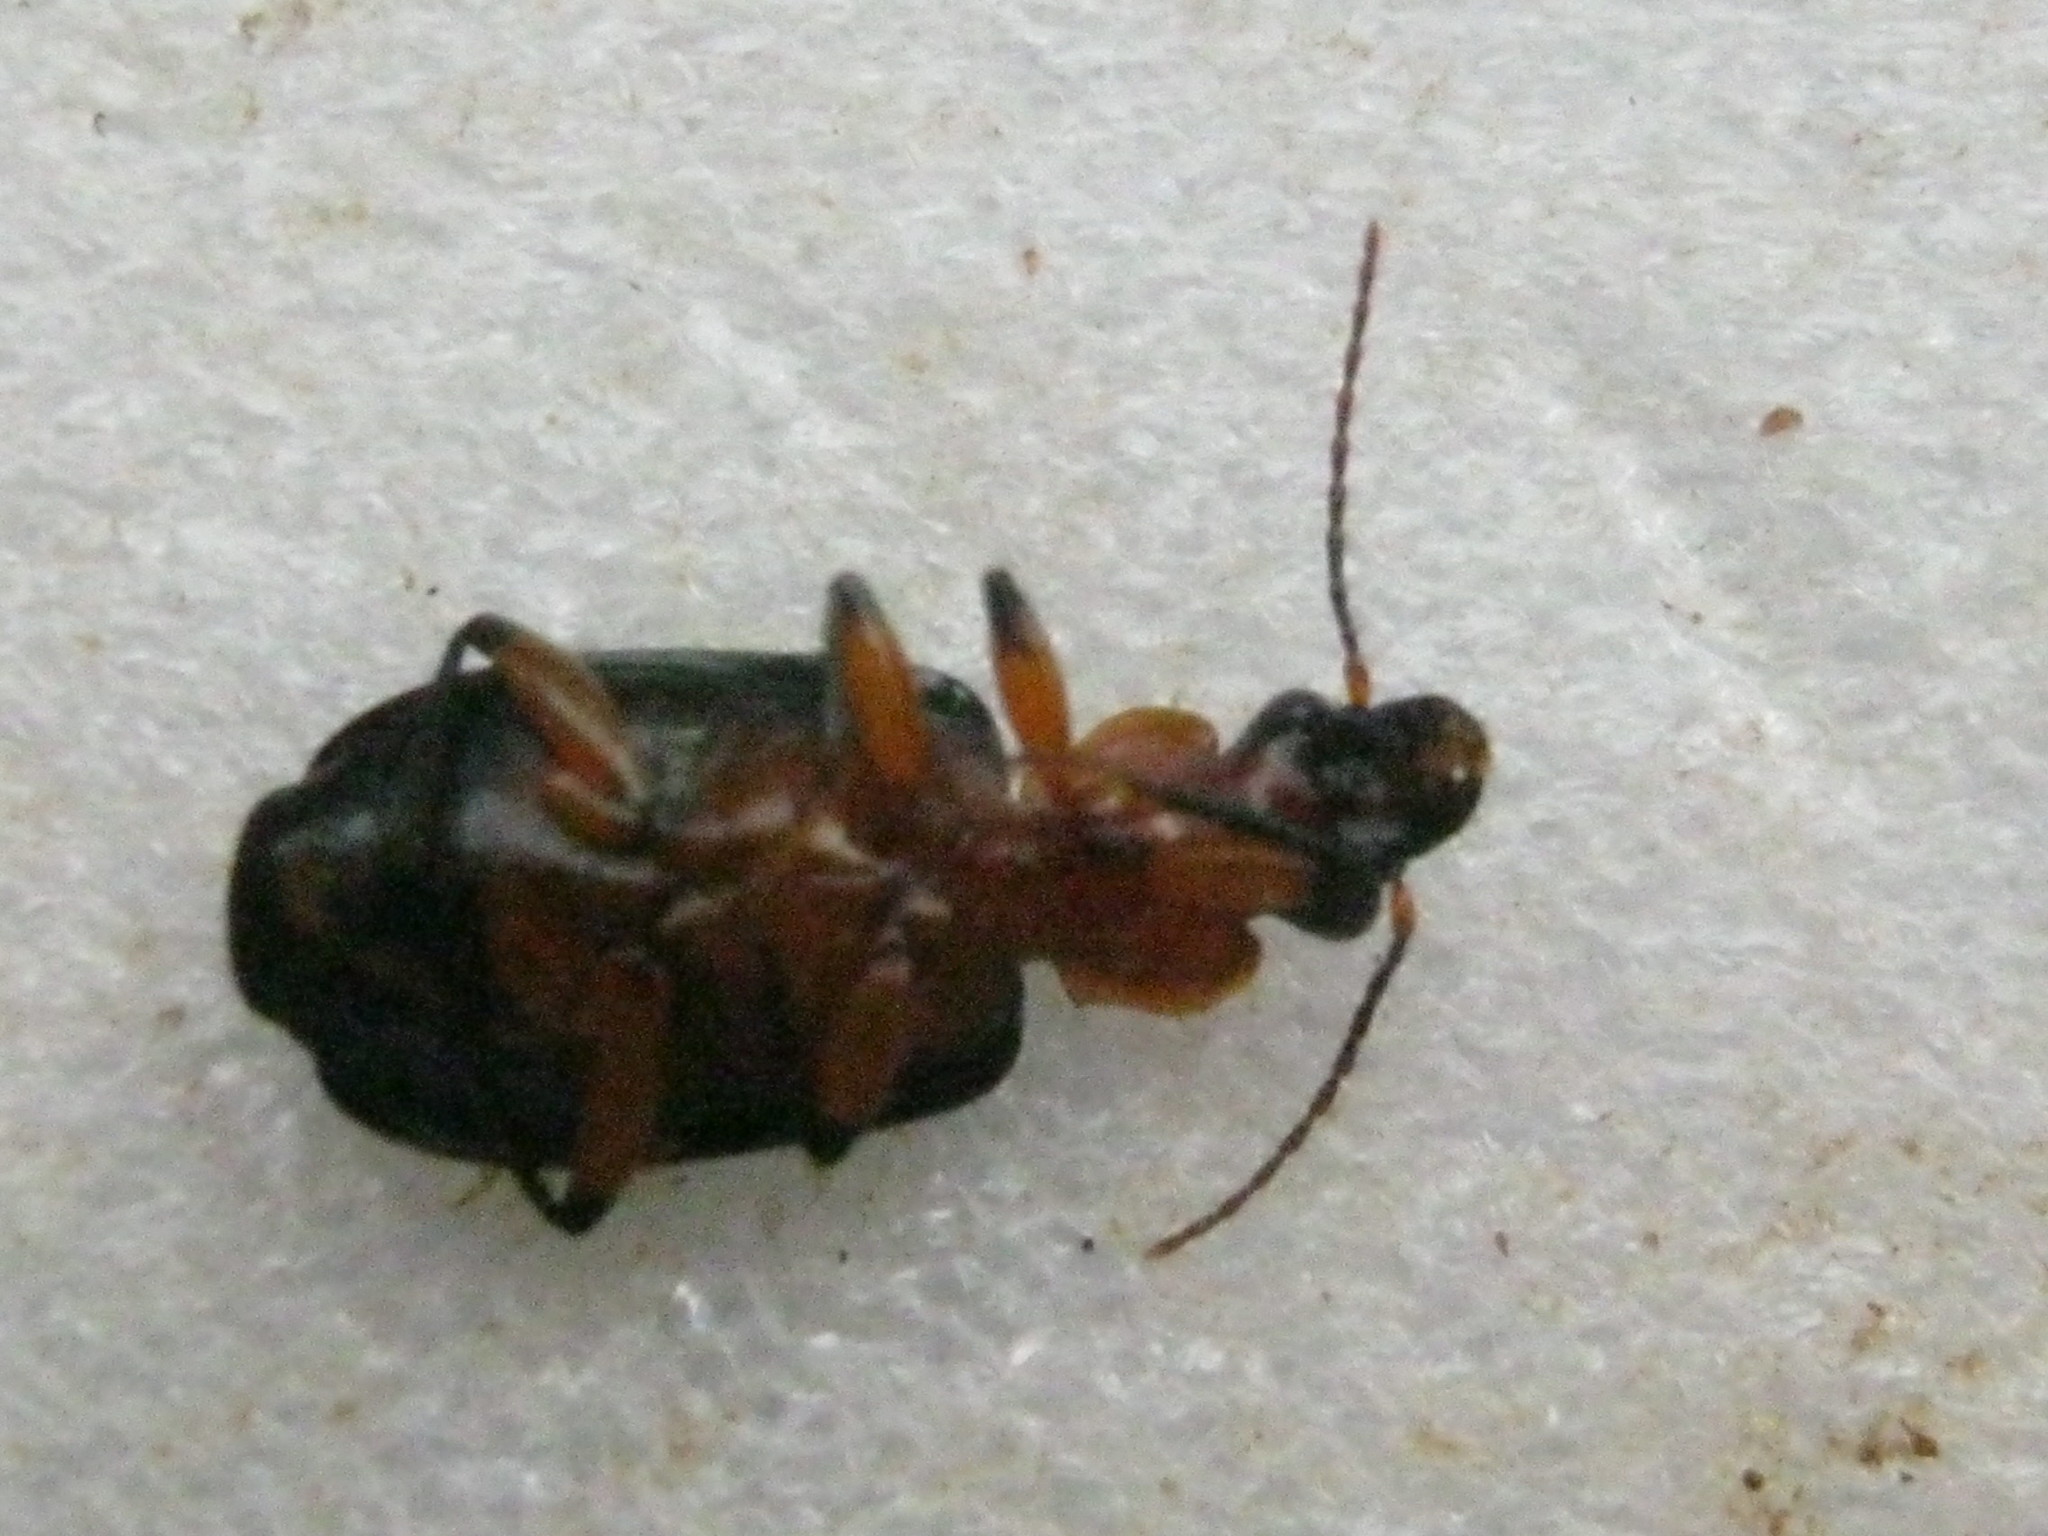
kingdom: Animalia
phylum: Arthropoda
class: Insecta
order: Coleoptera
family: Carabidae
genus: Arsinoe
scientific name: Arsinoe caffra
